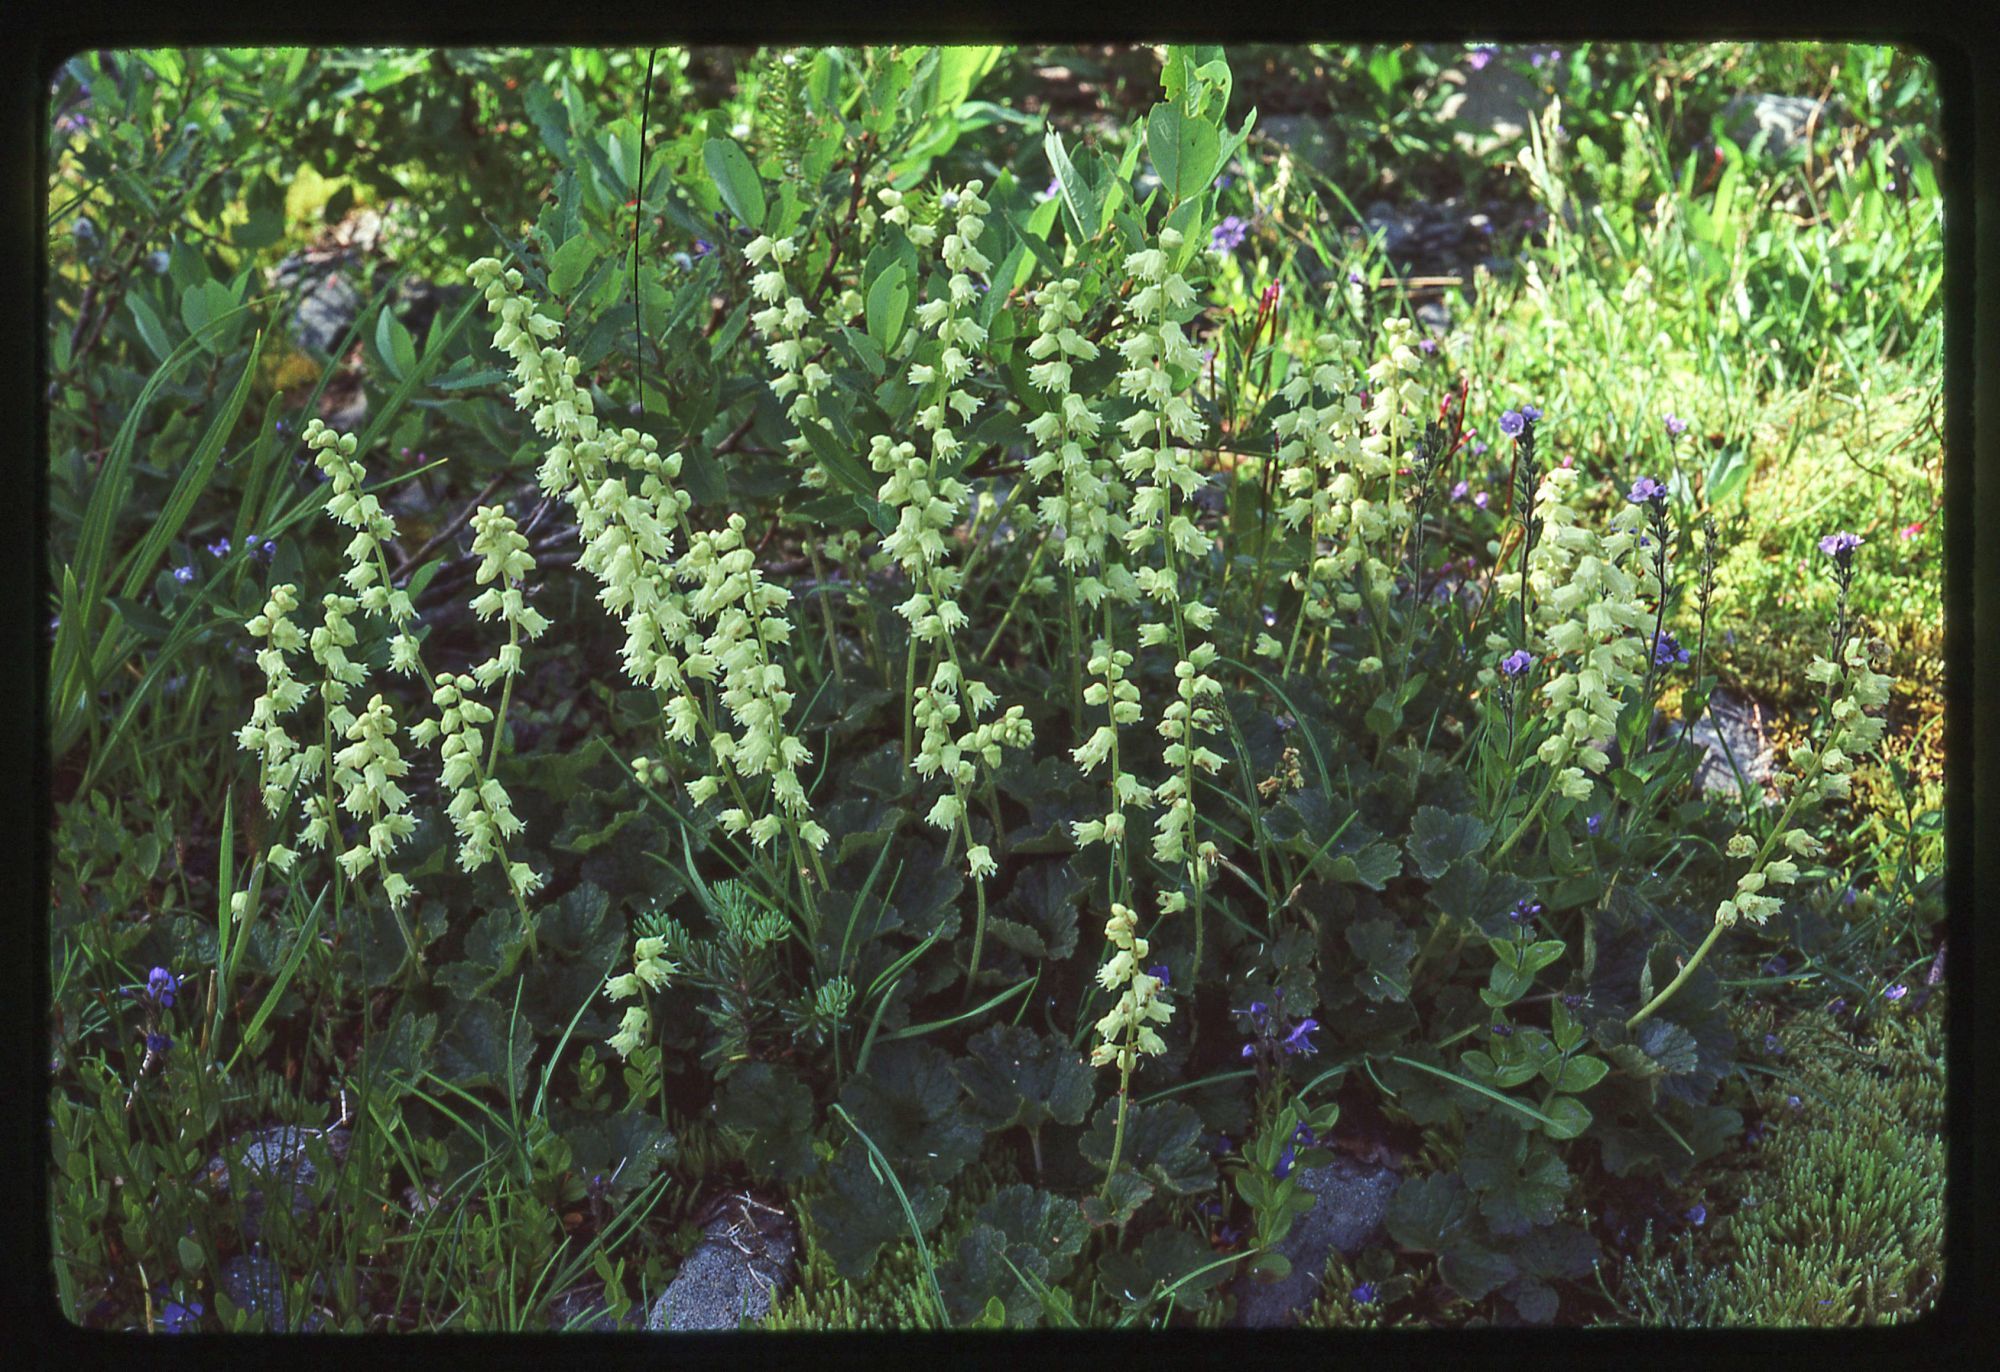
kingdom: Plantae
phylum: Tracheophyta
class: Magnoliopsida
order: Saxifragales
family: Saxifragaceae
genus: Elmera
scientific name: Elmera racemosa
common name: Elmera
